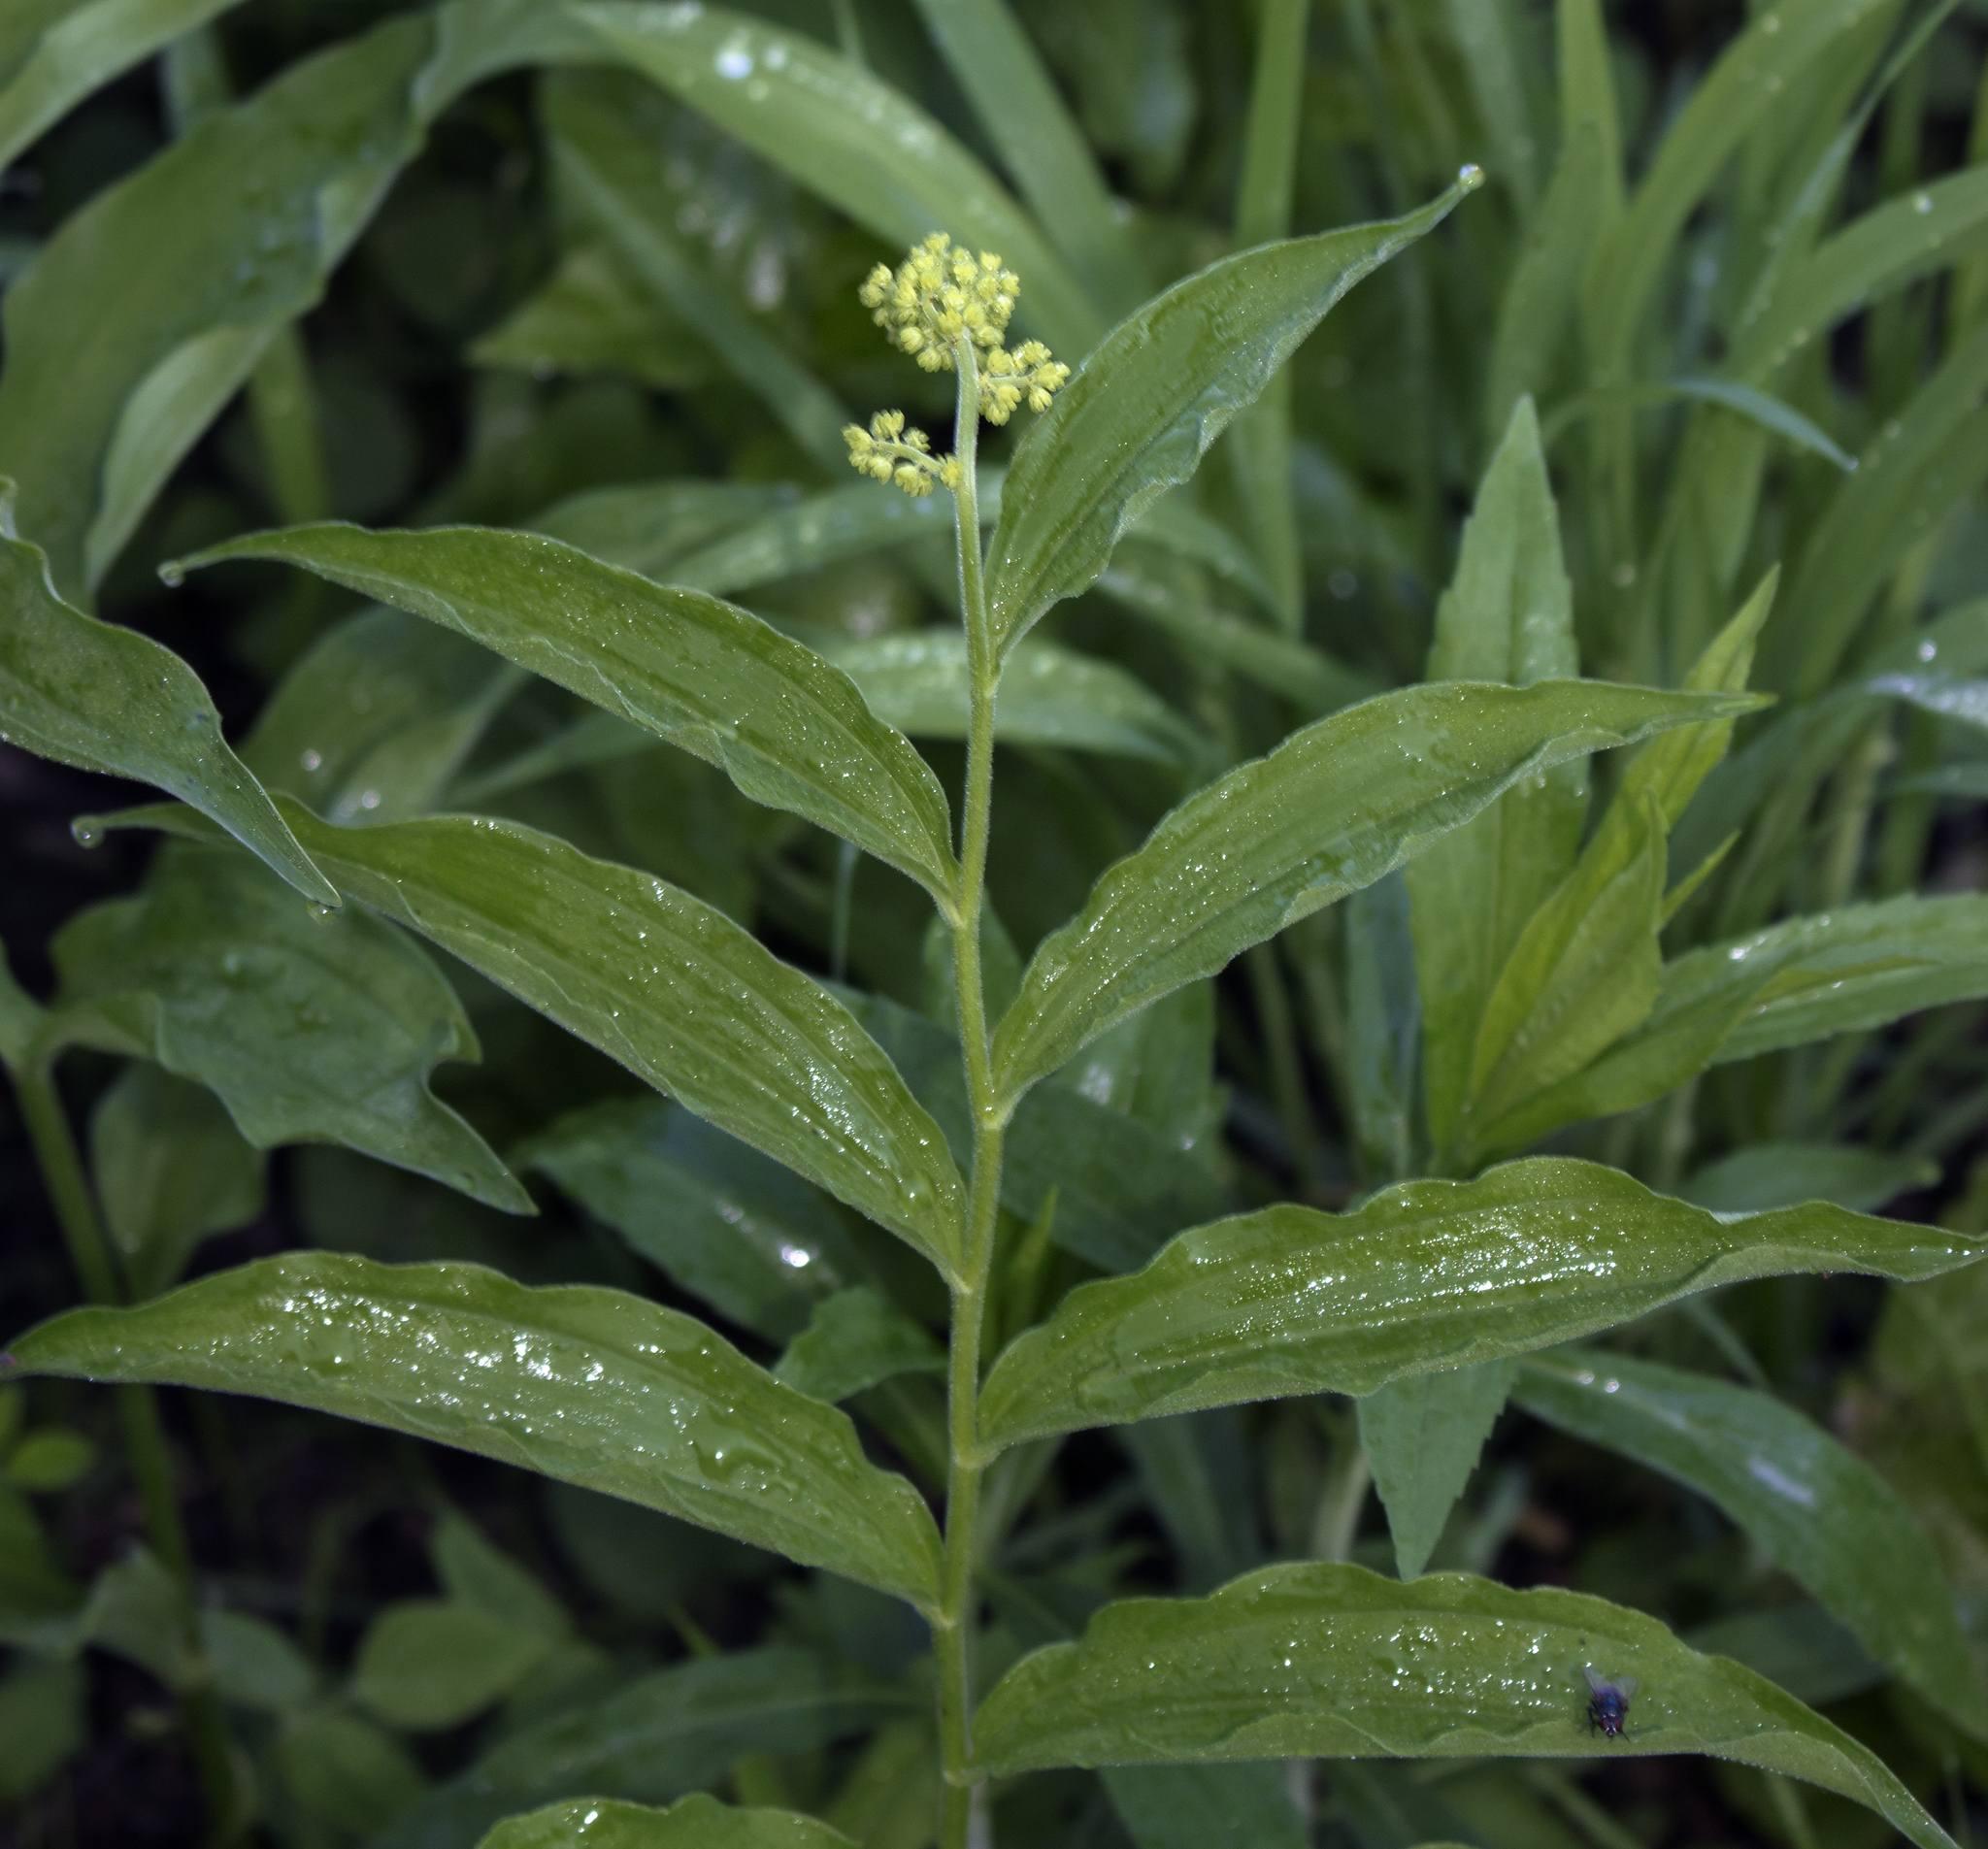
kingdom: Plantae
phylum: Tracheophyta
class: Liliopsida
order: Asparagales
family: Asparagaceae
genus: Maianthemum
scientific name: Maianthemum racemosum
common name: False spikenard
